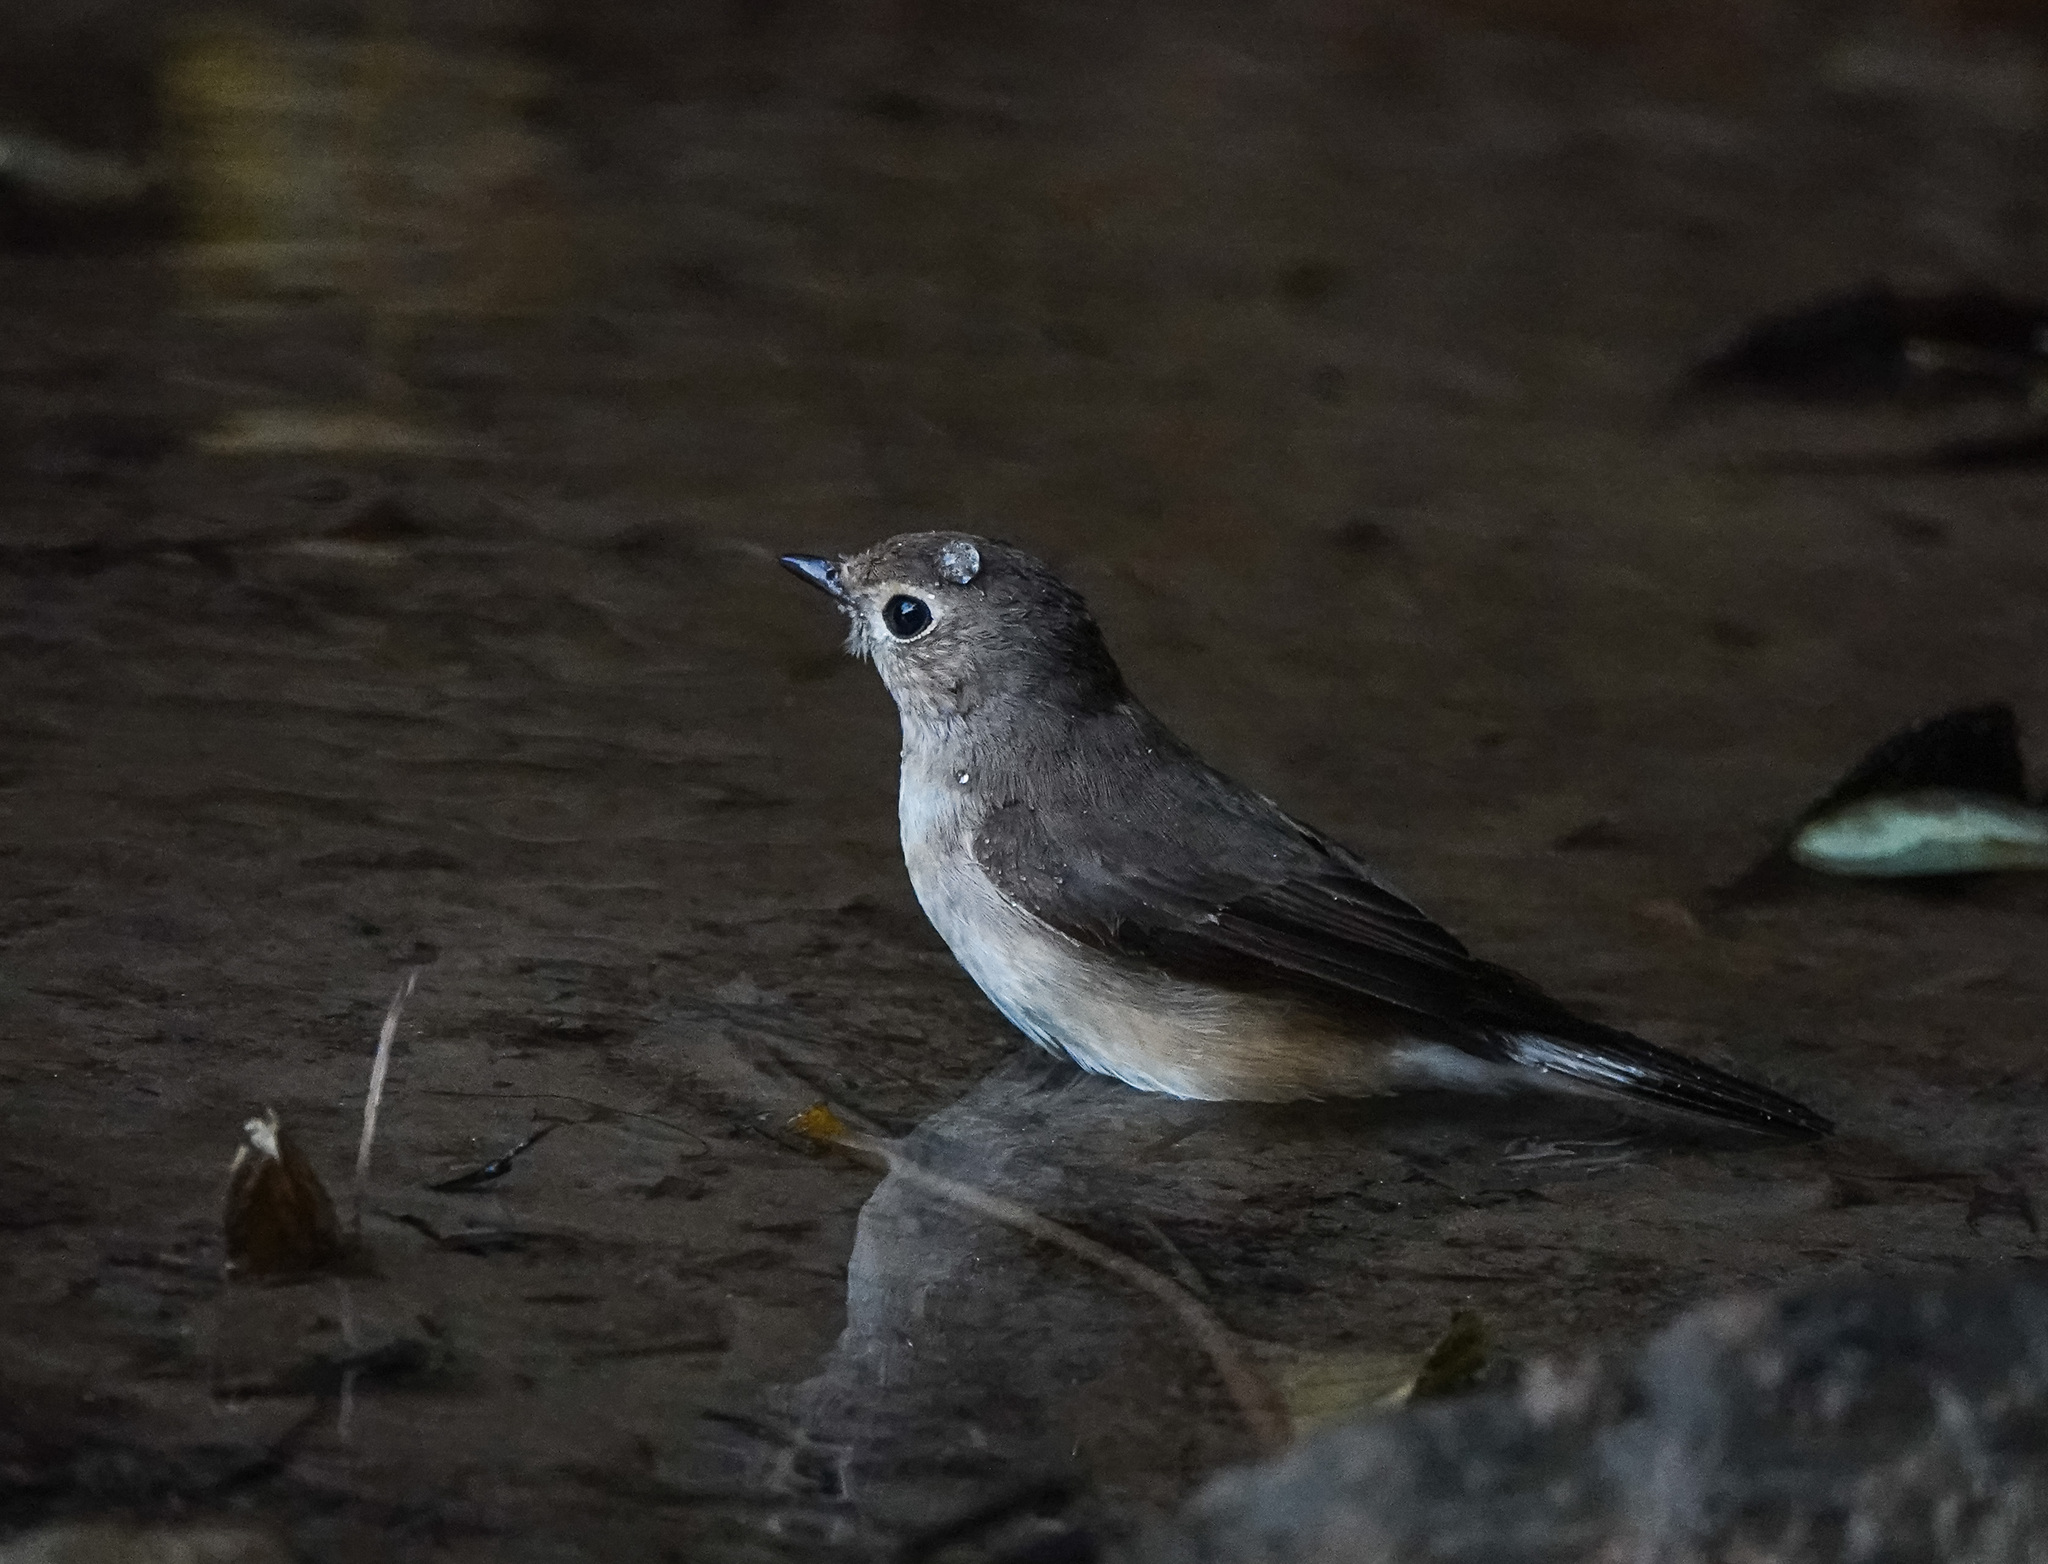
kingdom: Animalia
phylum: Chordata
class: Aves
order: Passeriformes
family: Muscicapidae
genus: Ficedula
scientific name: Ficedula albicilla
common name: Taiga flycatcher
